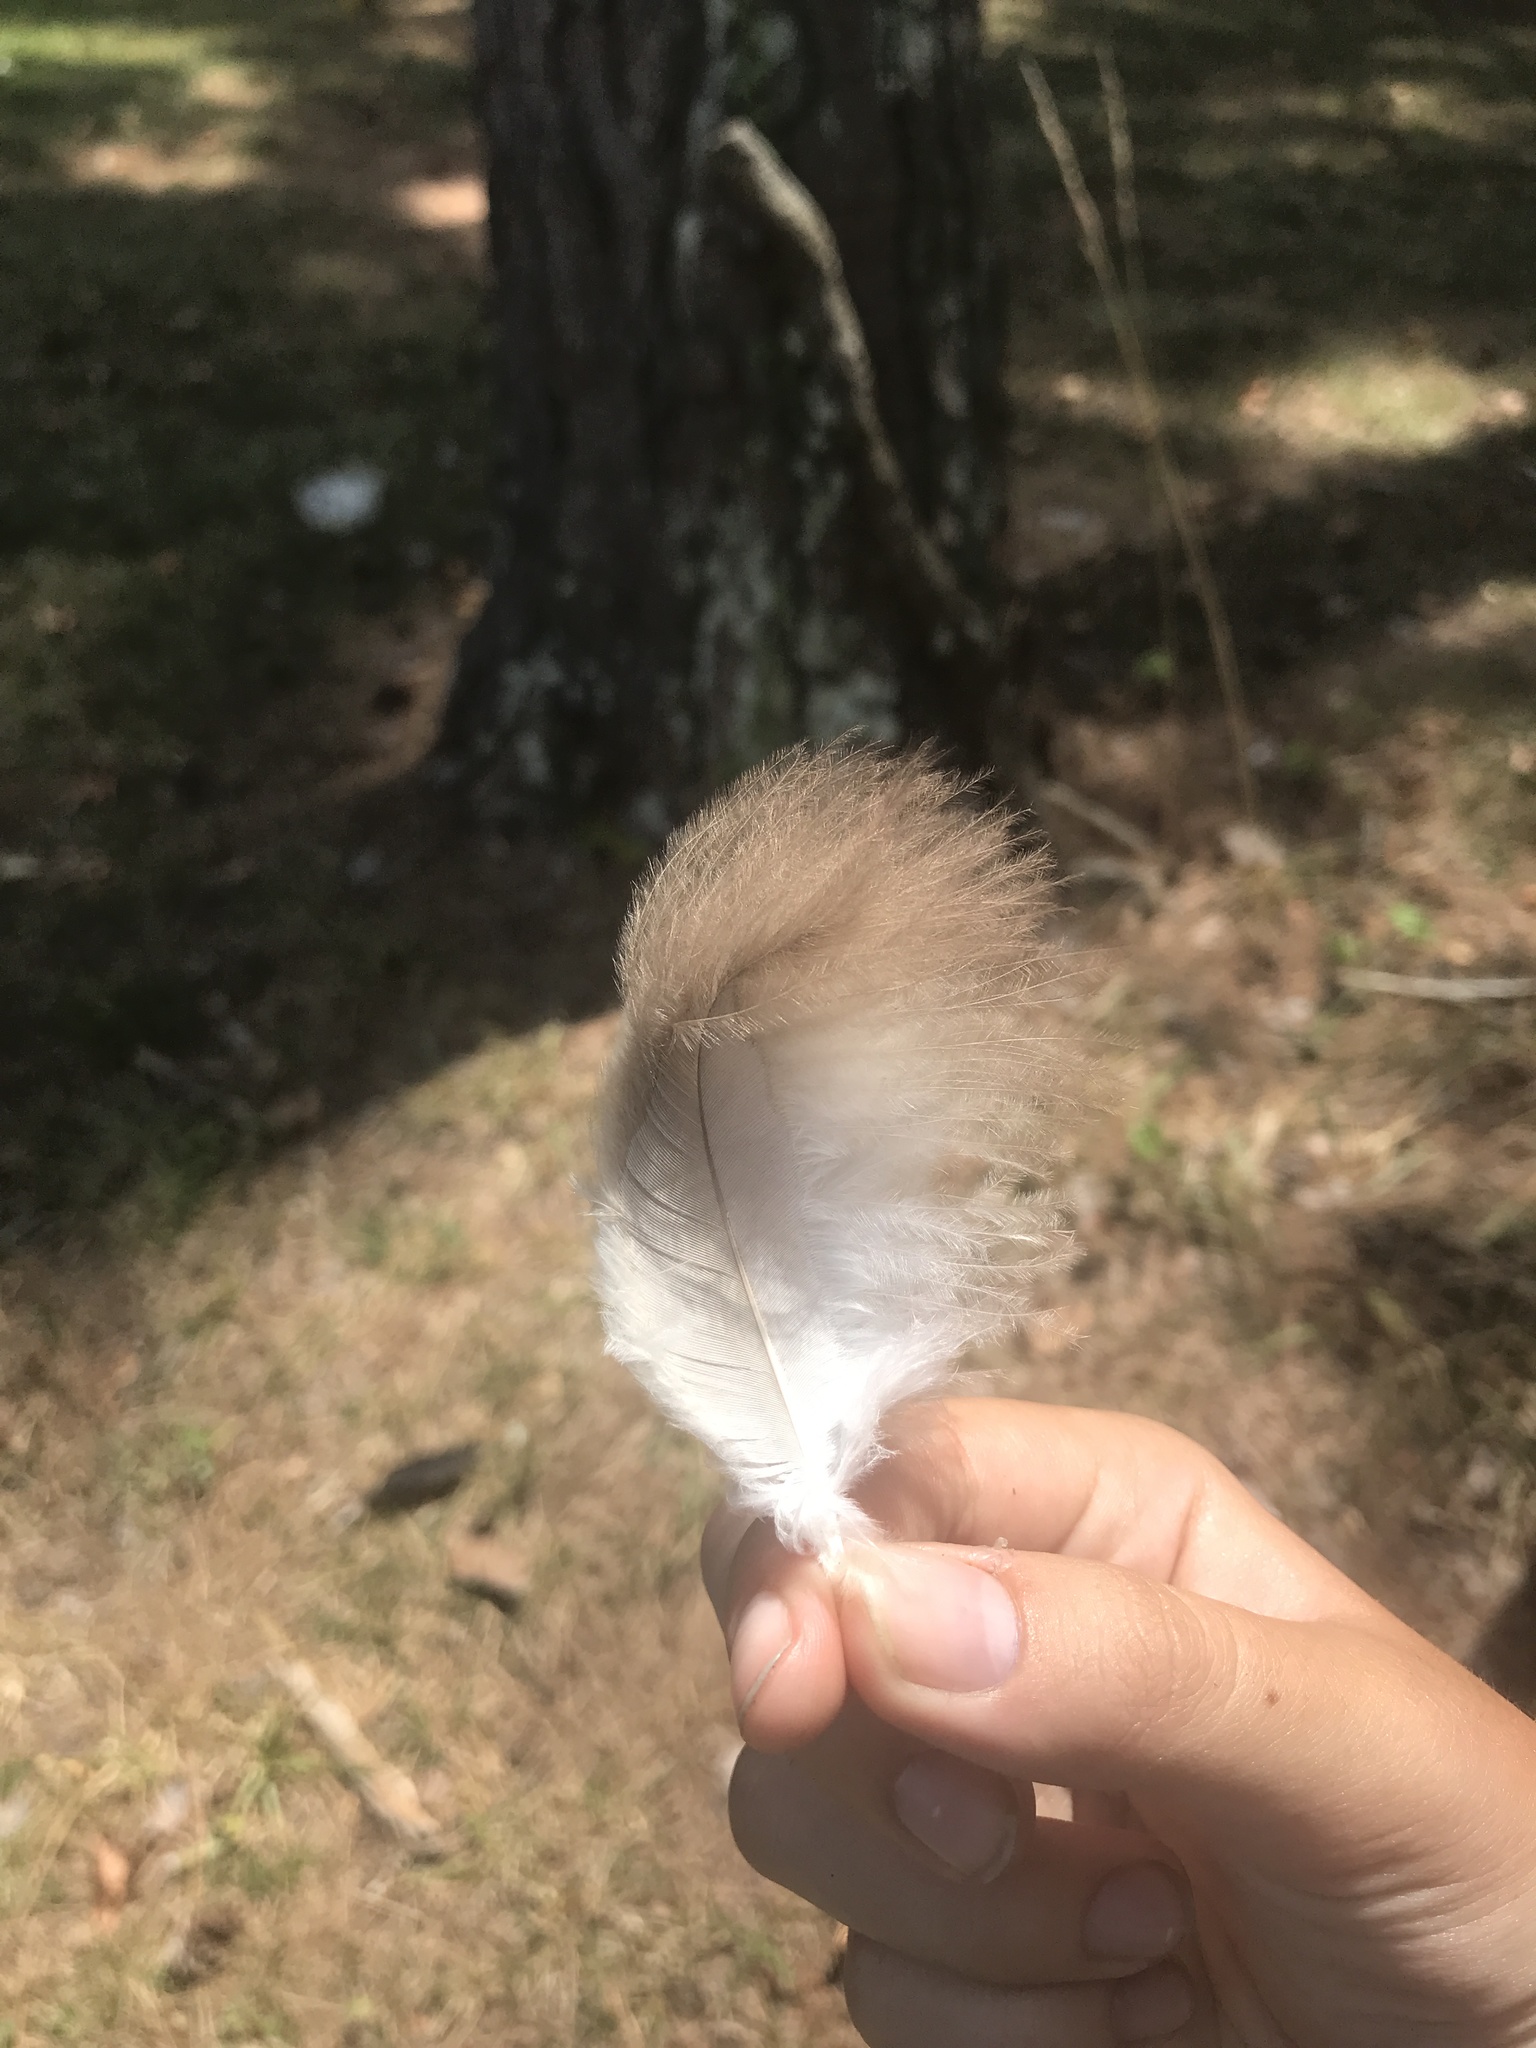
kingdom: Animalia
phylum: Chordata
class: Aves
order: Accipitriformes
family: Cathartidae
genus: Cathartes
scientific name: Cathartes aura
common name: Turkey vulture
